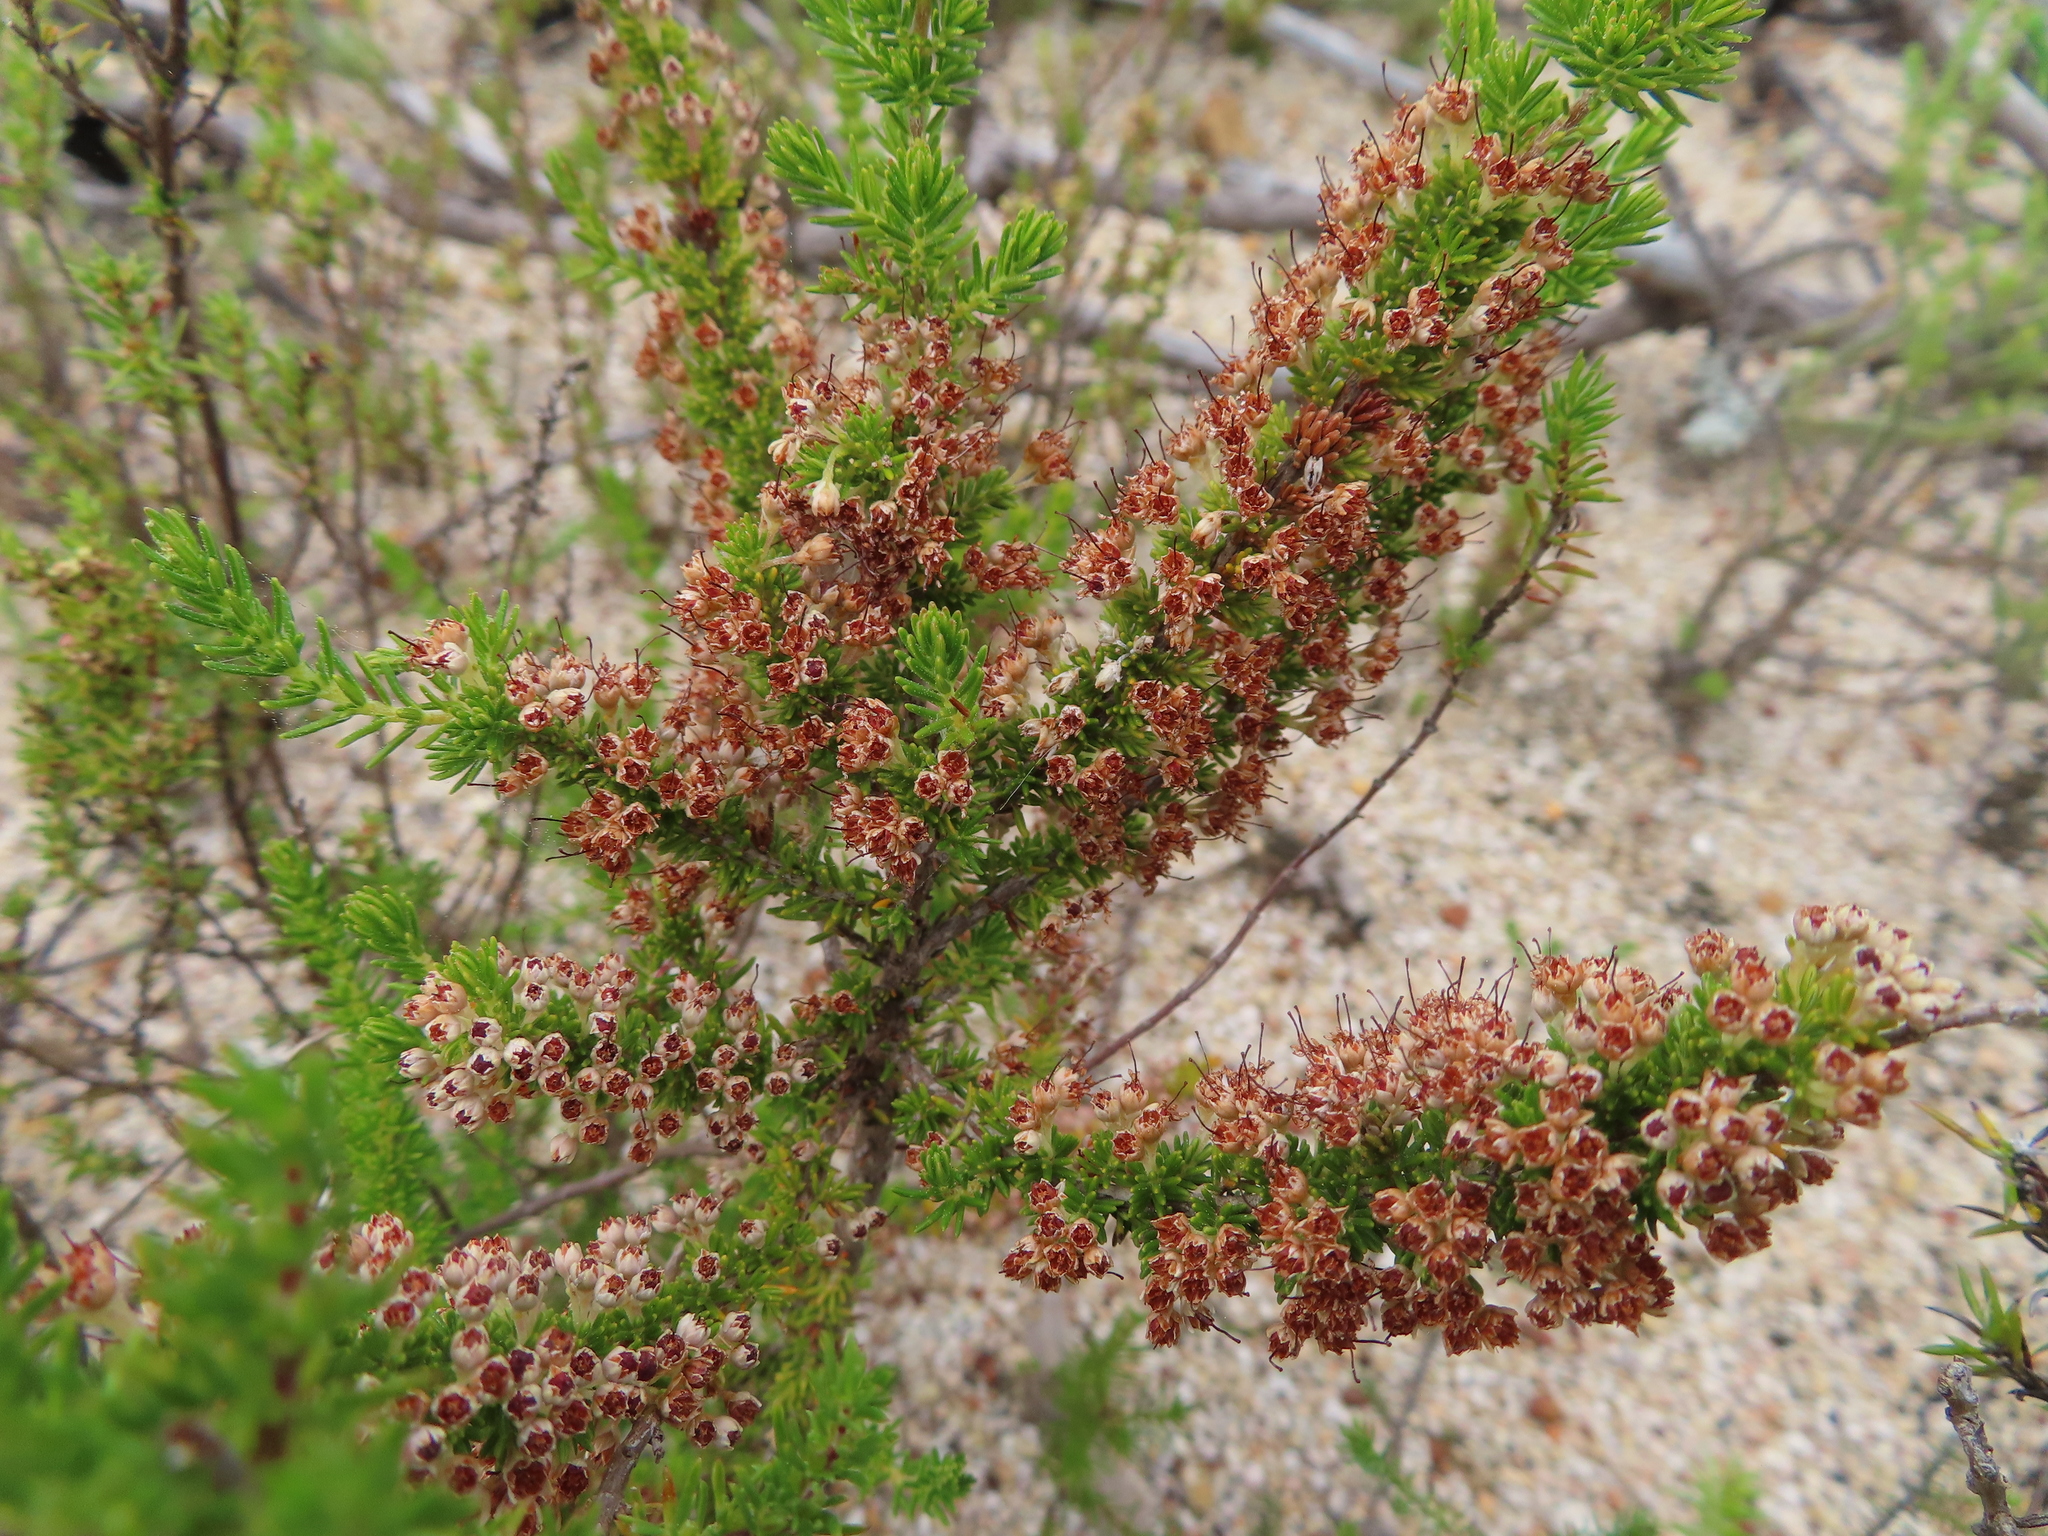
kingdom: Plantae
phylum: Tracheophyta
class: Magnoliopsida
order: Ericales
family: Ericaceae
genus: Erica
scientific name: Erica imbricata
